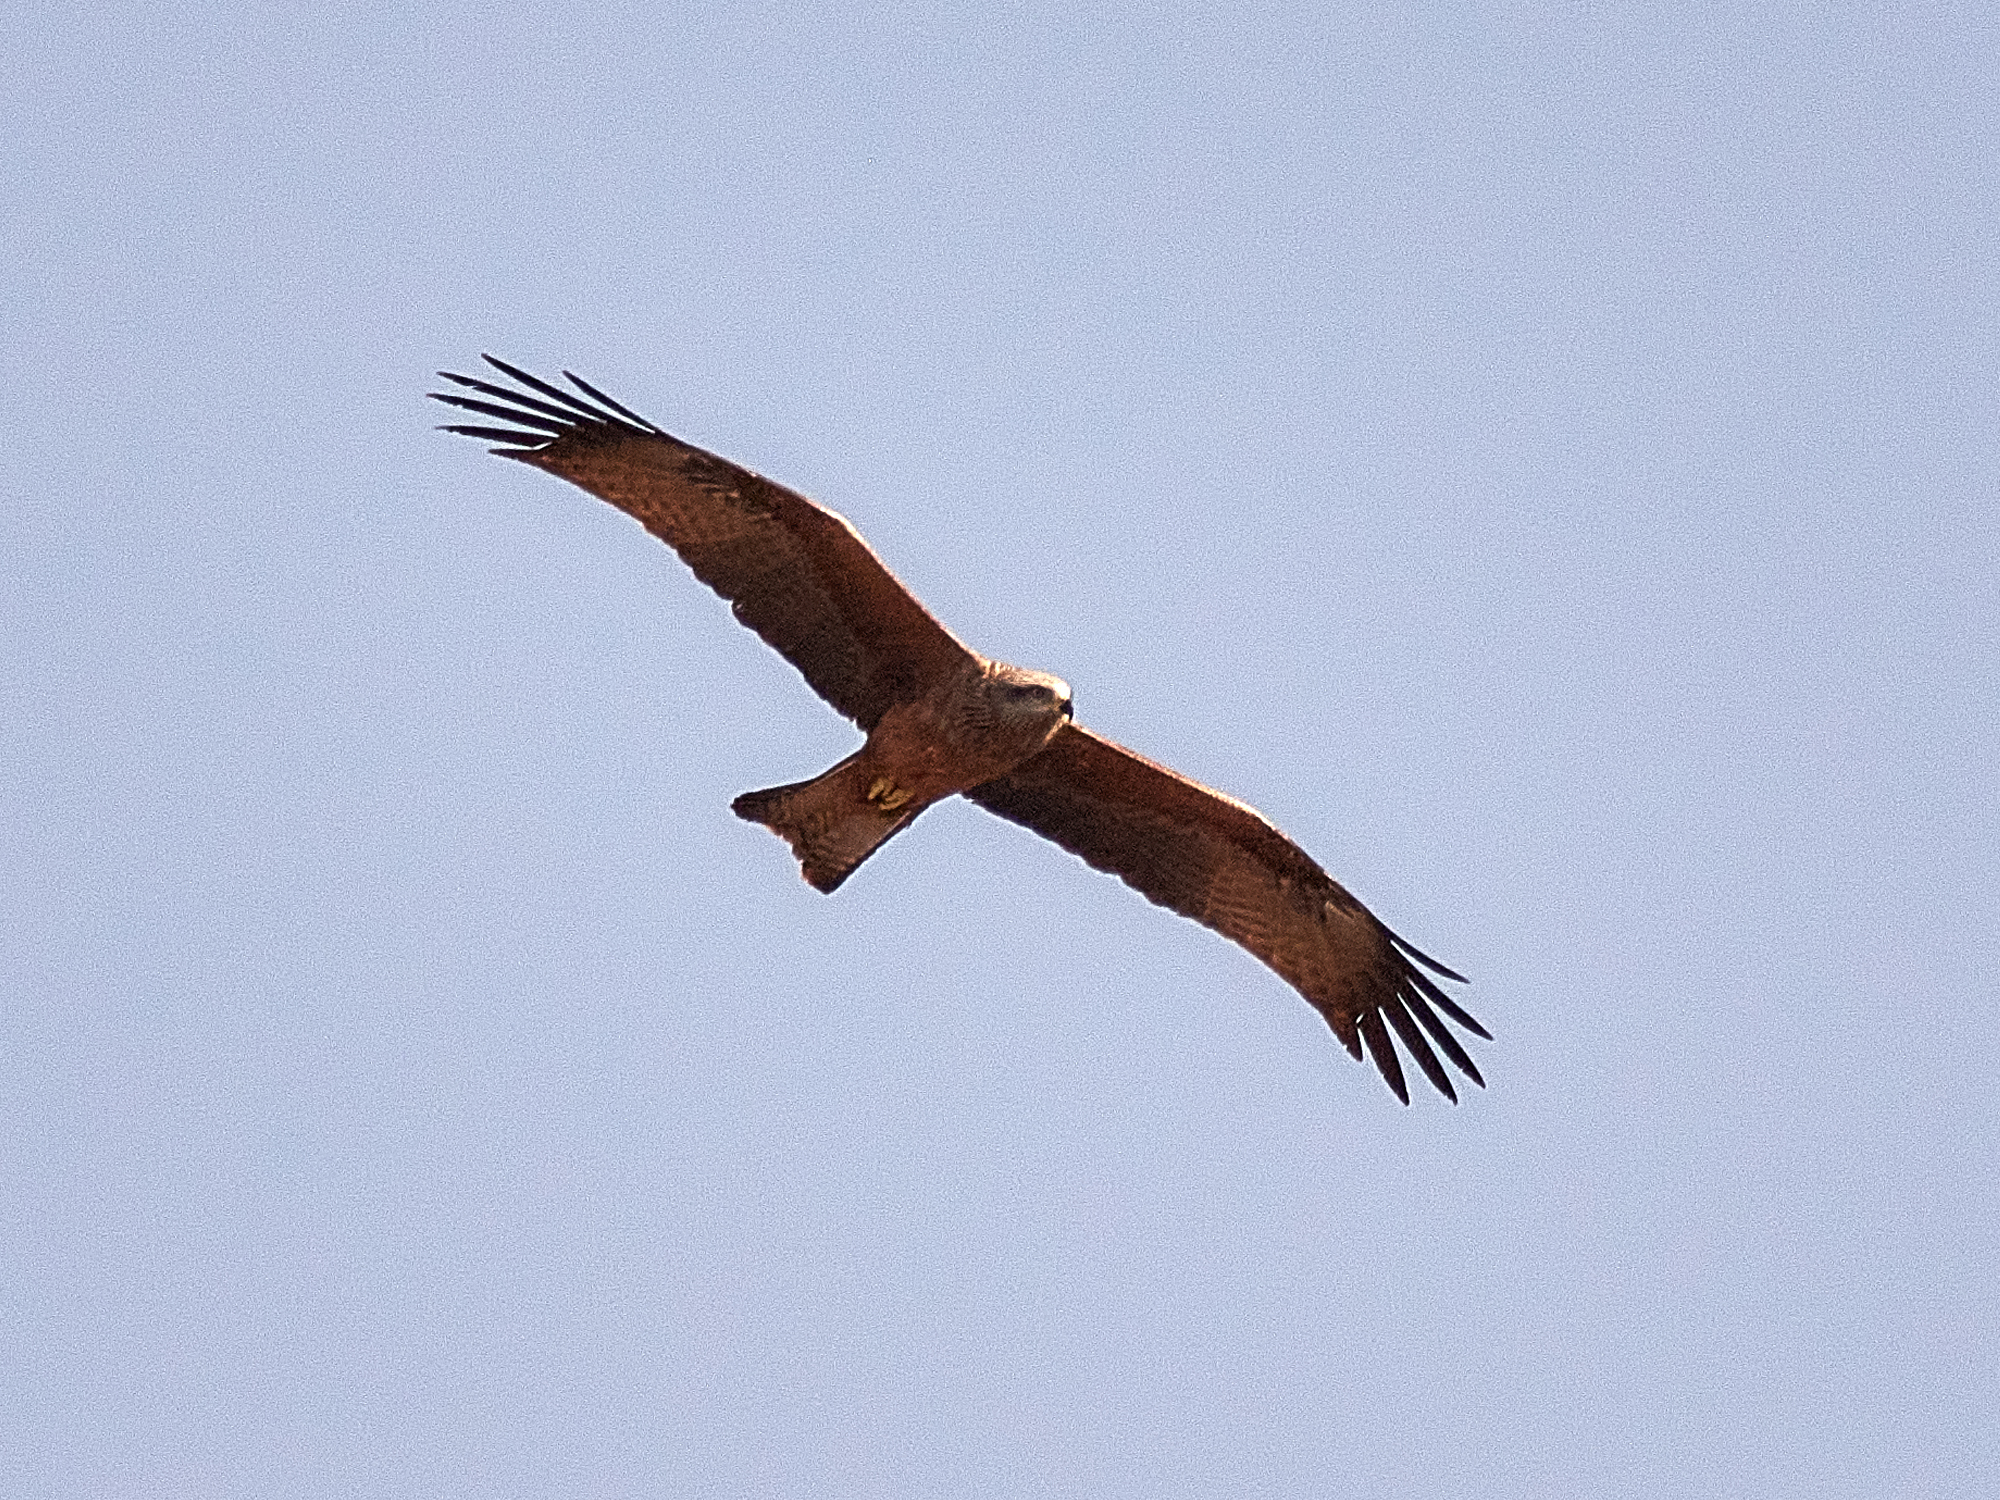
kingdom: Animalia
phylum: Chordata
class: Aves
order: Accipitriformes
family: Accipitridae
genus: Milvus
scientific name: Milvus migrans
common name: Black kite
